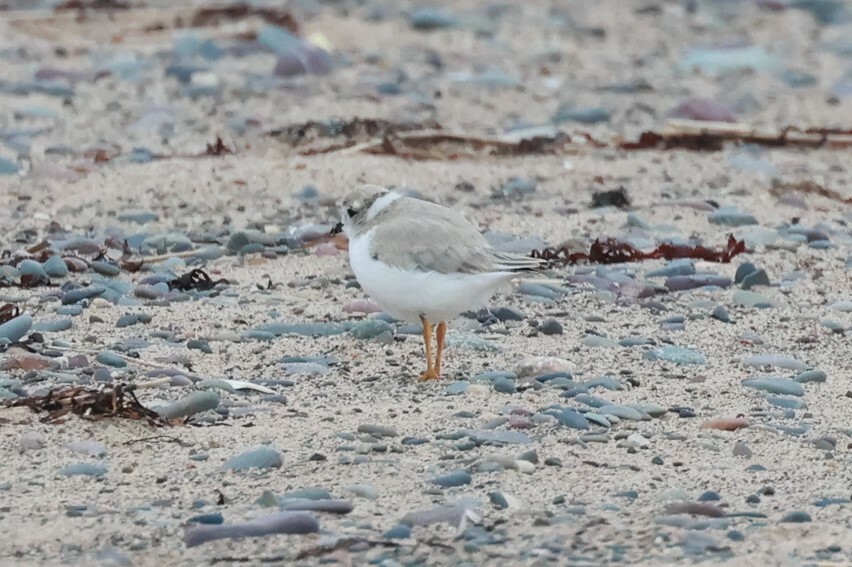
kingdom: Animalia
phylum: Chordata
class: Aves
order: Charadriiformes
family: Charadriidae
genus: Charadrius
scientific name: Charadrius melodus
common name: Piping plover
